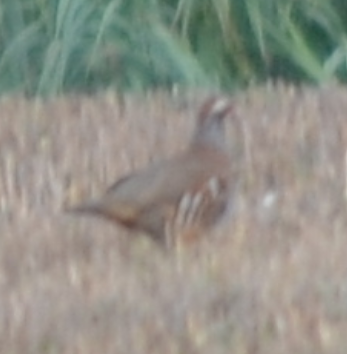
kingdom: Animalia
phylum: Chordata
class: Aves
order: Galliformes
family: Phasianidae
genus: Alectoris
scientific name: Alectoris rufa
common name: Red-legged partridge
